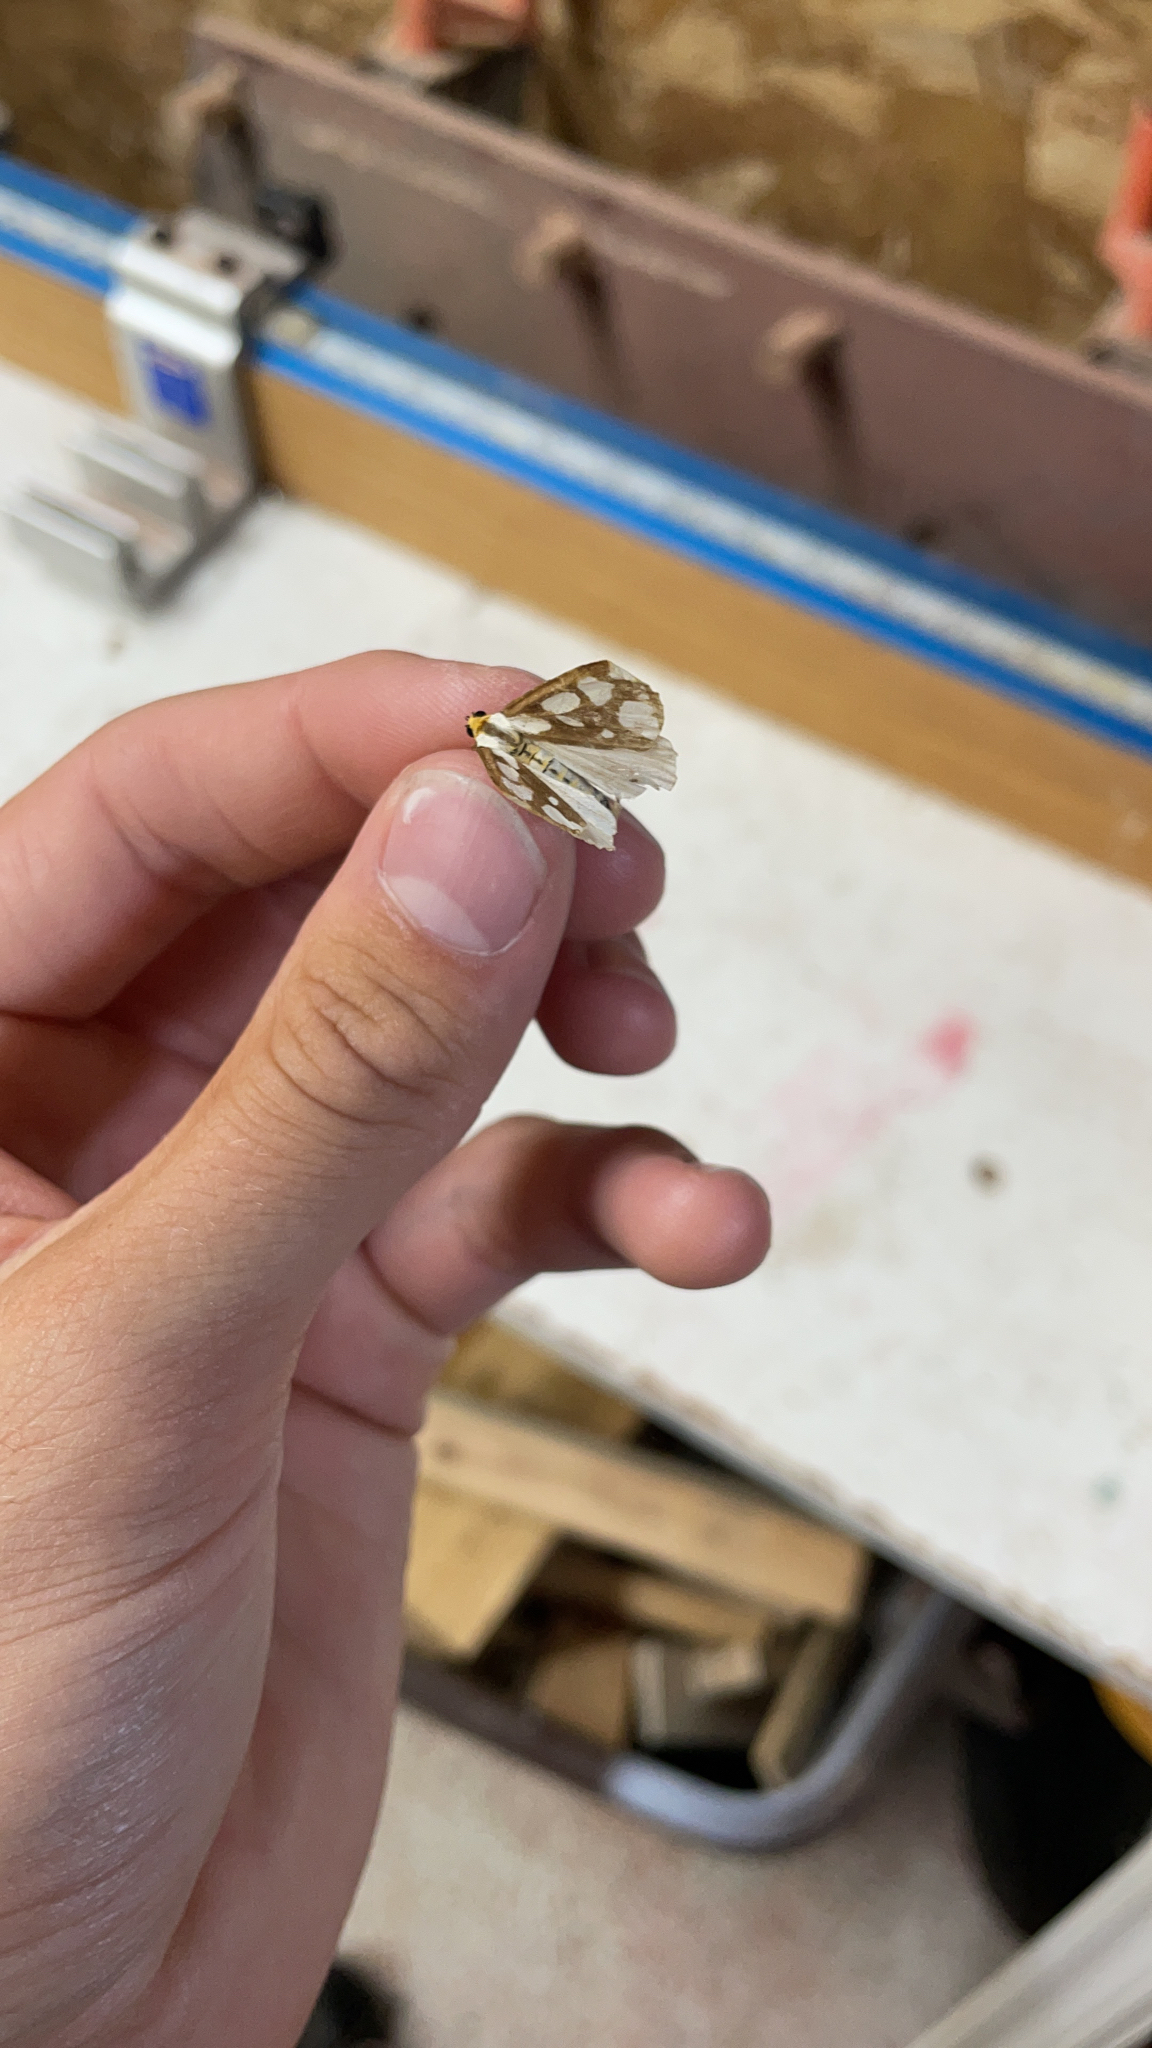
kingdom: Animalia
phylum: Arthropoda
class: Insecta
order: Lepidoptera
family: Erebidae
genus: Haploa
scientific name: Haploa confusa
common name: Confused haploa moth
